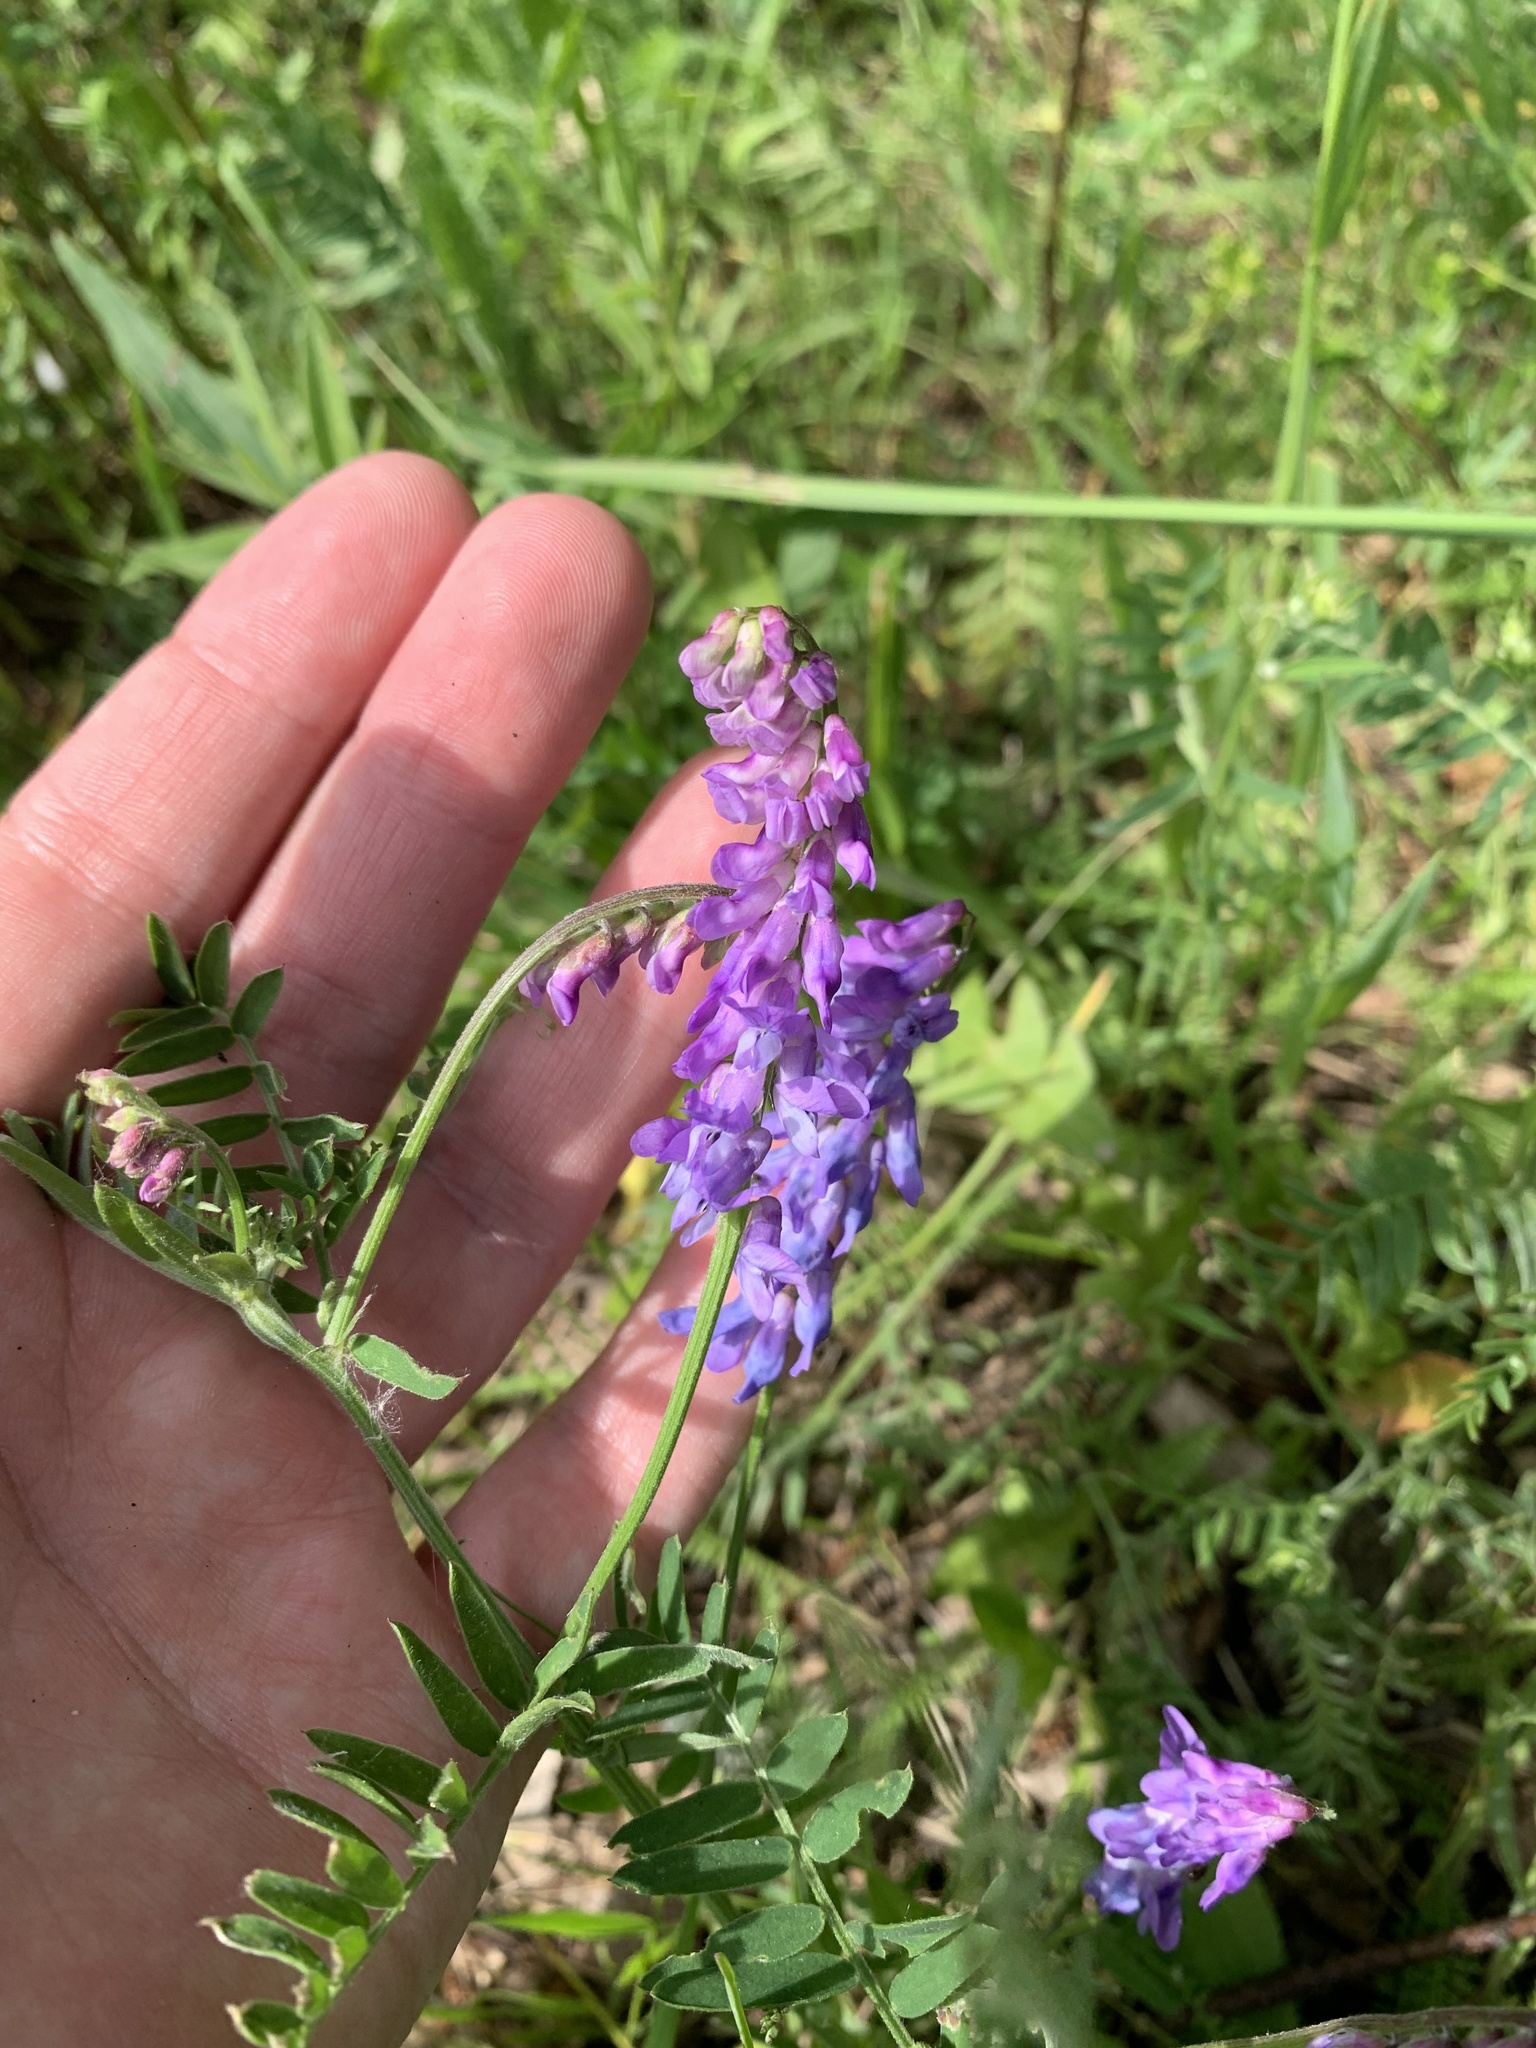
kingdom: Plantae
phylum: Tracheophyta
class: Magnoliopsida
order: Fabales
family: Fabaceae
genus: Vicia
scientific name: Vicia cracca
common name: Bird vetch
